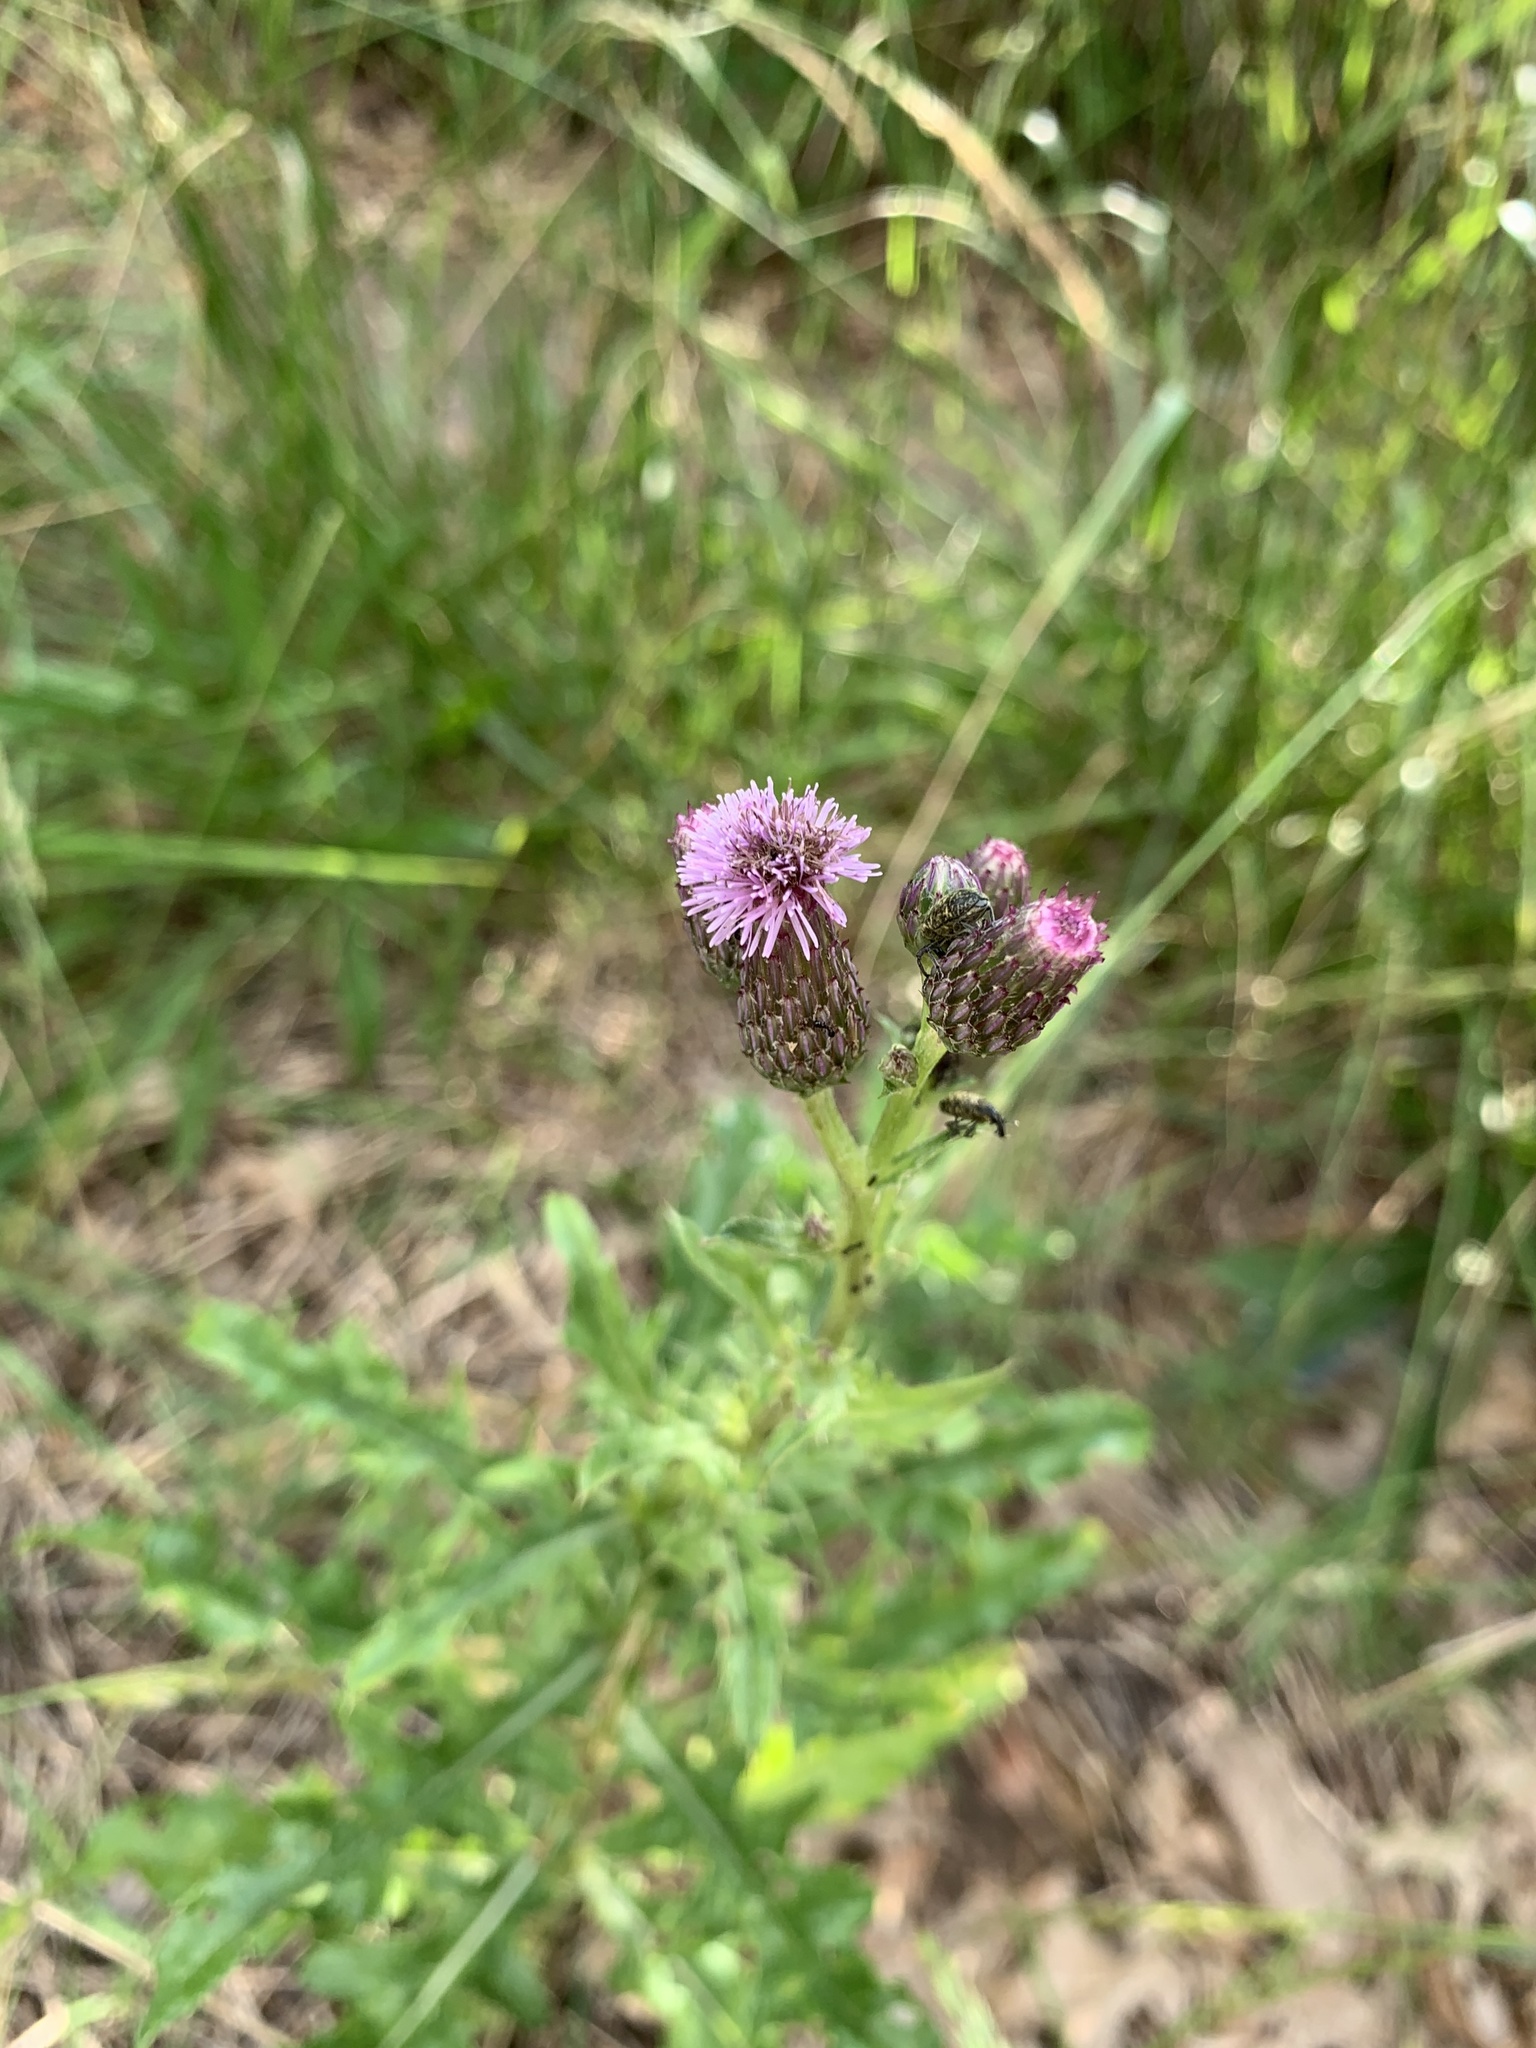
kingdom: Plantae
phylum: Tracheophyta
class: Magnoliopsida
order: Asterales
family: Asteraceae
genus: Cirsium
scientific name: Cirsium arvense
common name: Creeping thistle
